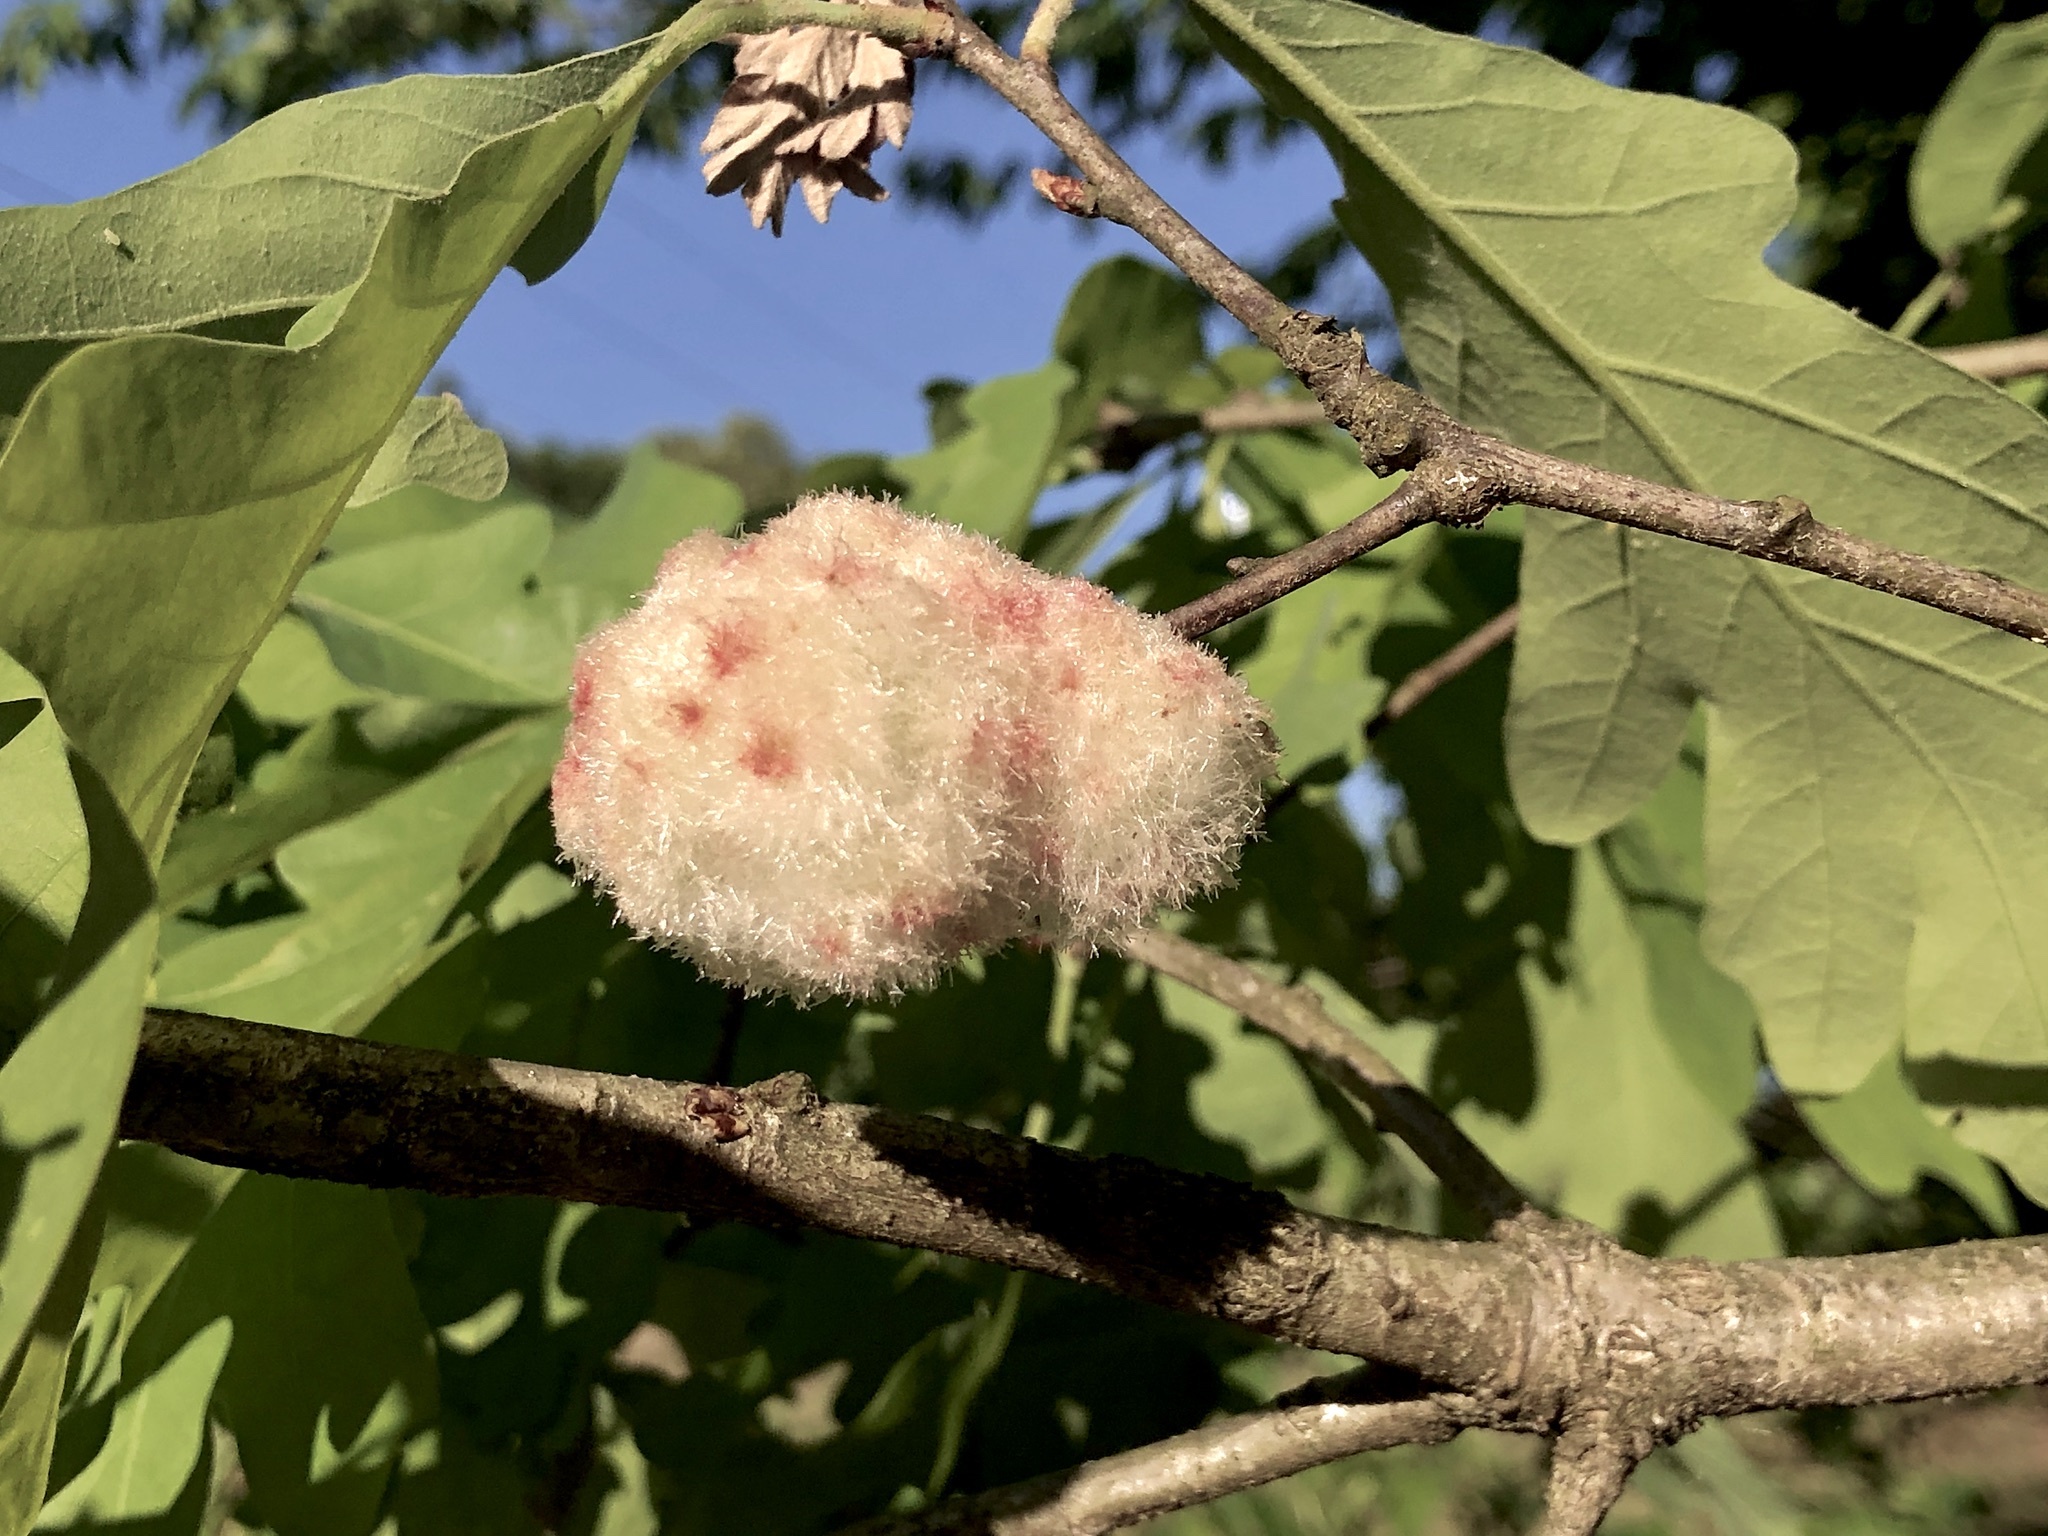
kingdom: Animalia
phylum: Arthropoda
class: Insecta
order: Hymenoptera
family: Cynipidae
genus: Callirhytis
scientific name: Callirhytis
